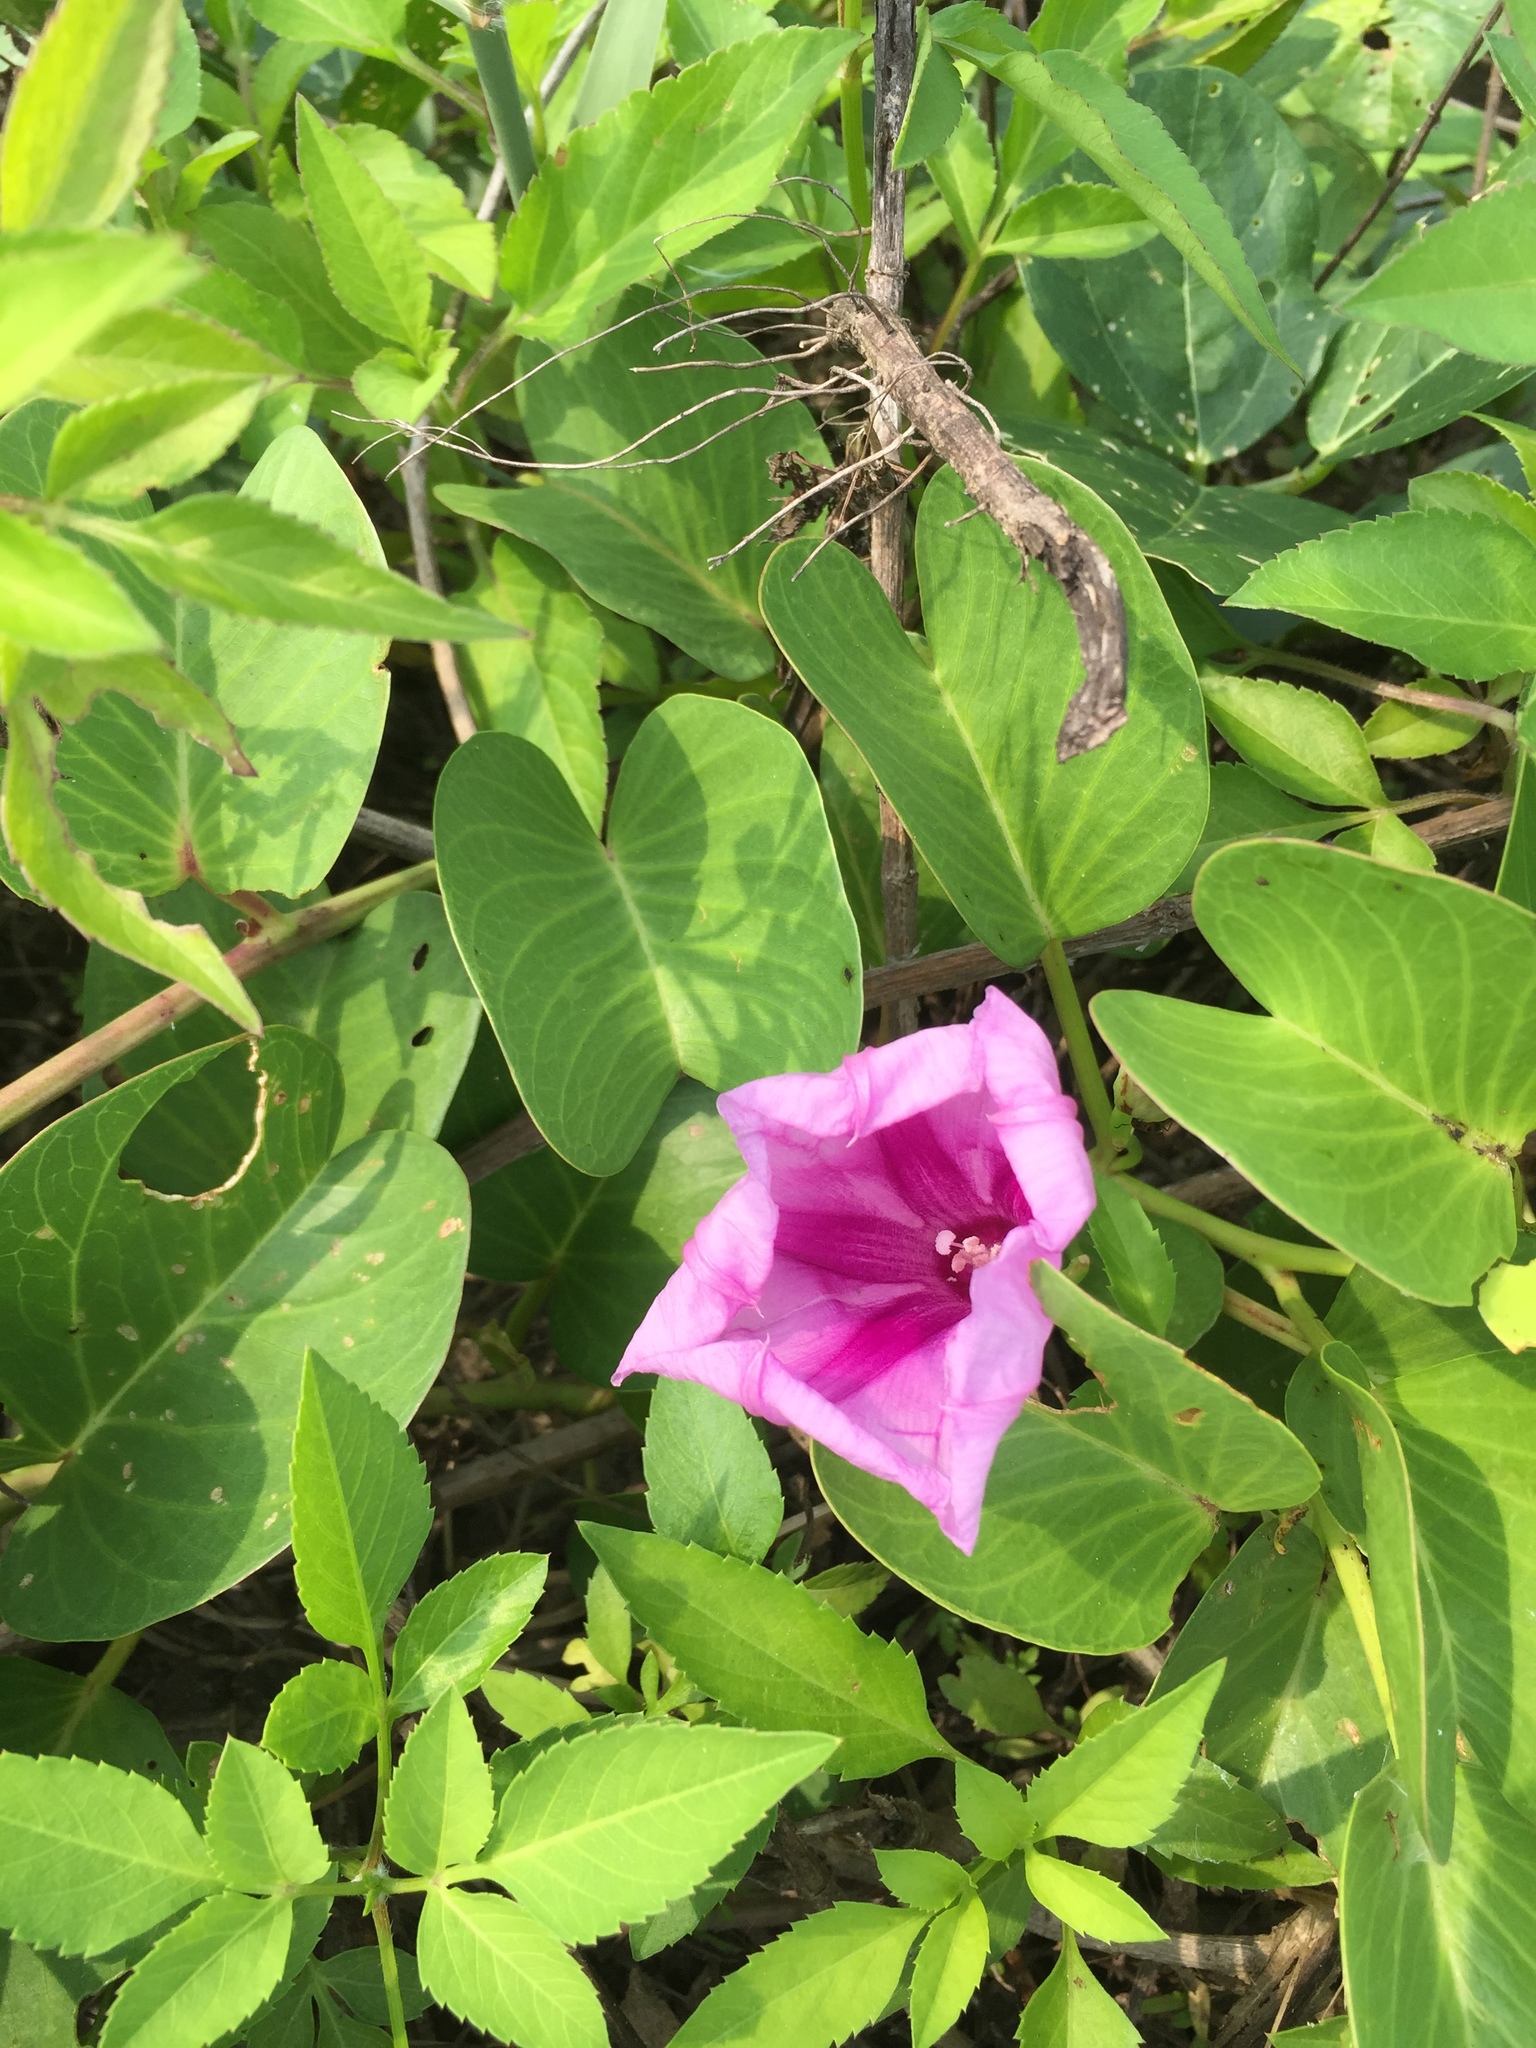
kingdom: Plantae
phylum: Tracheophyta
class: Magnoliopsida
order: Solanales
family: Convolvulaceae
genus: Ipomoea
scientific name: Ipomoea pes-caprae
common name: Beach morning glory
